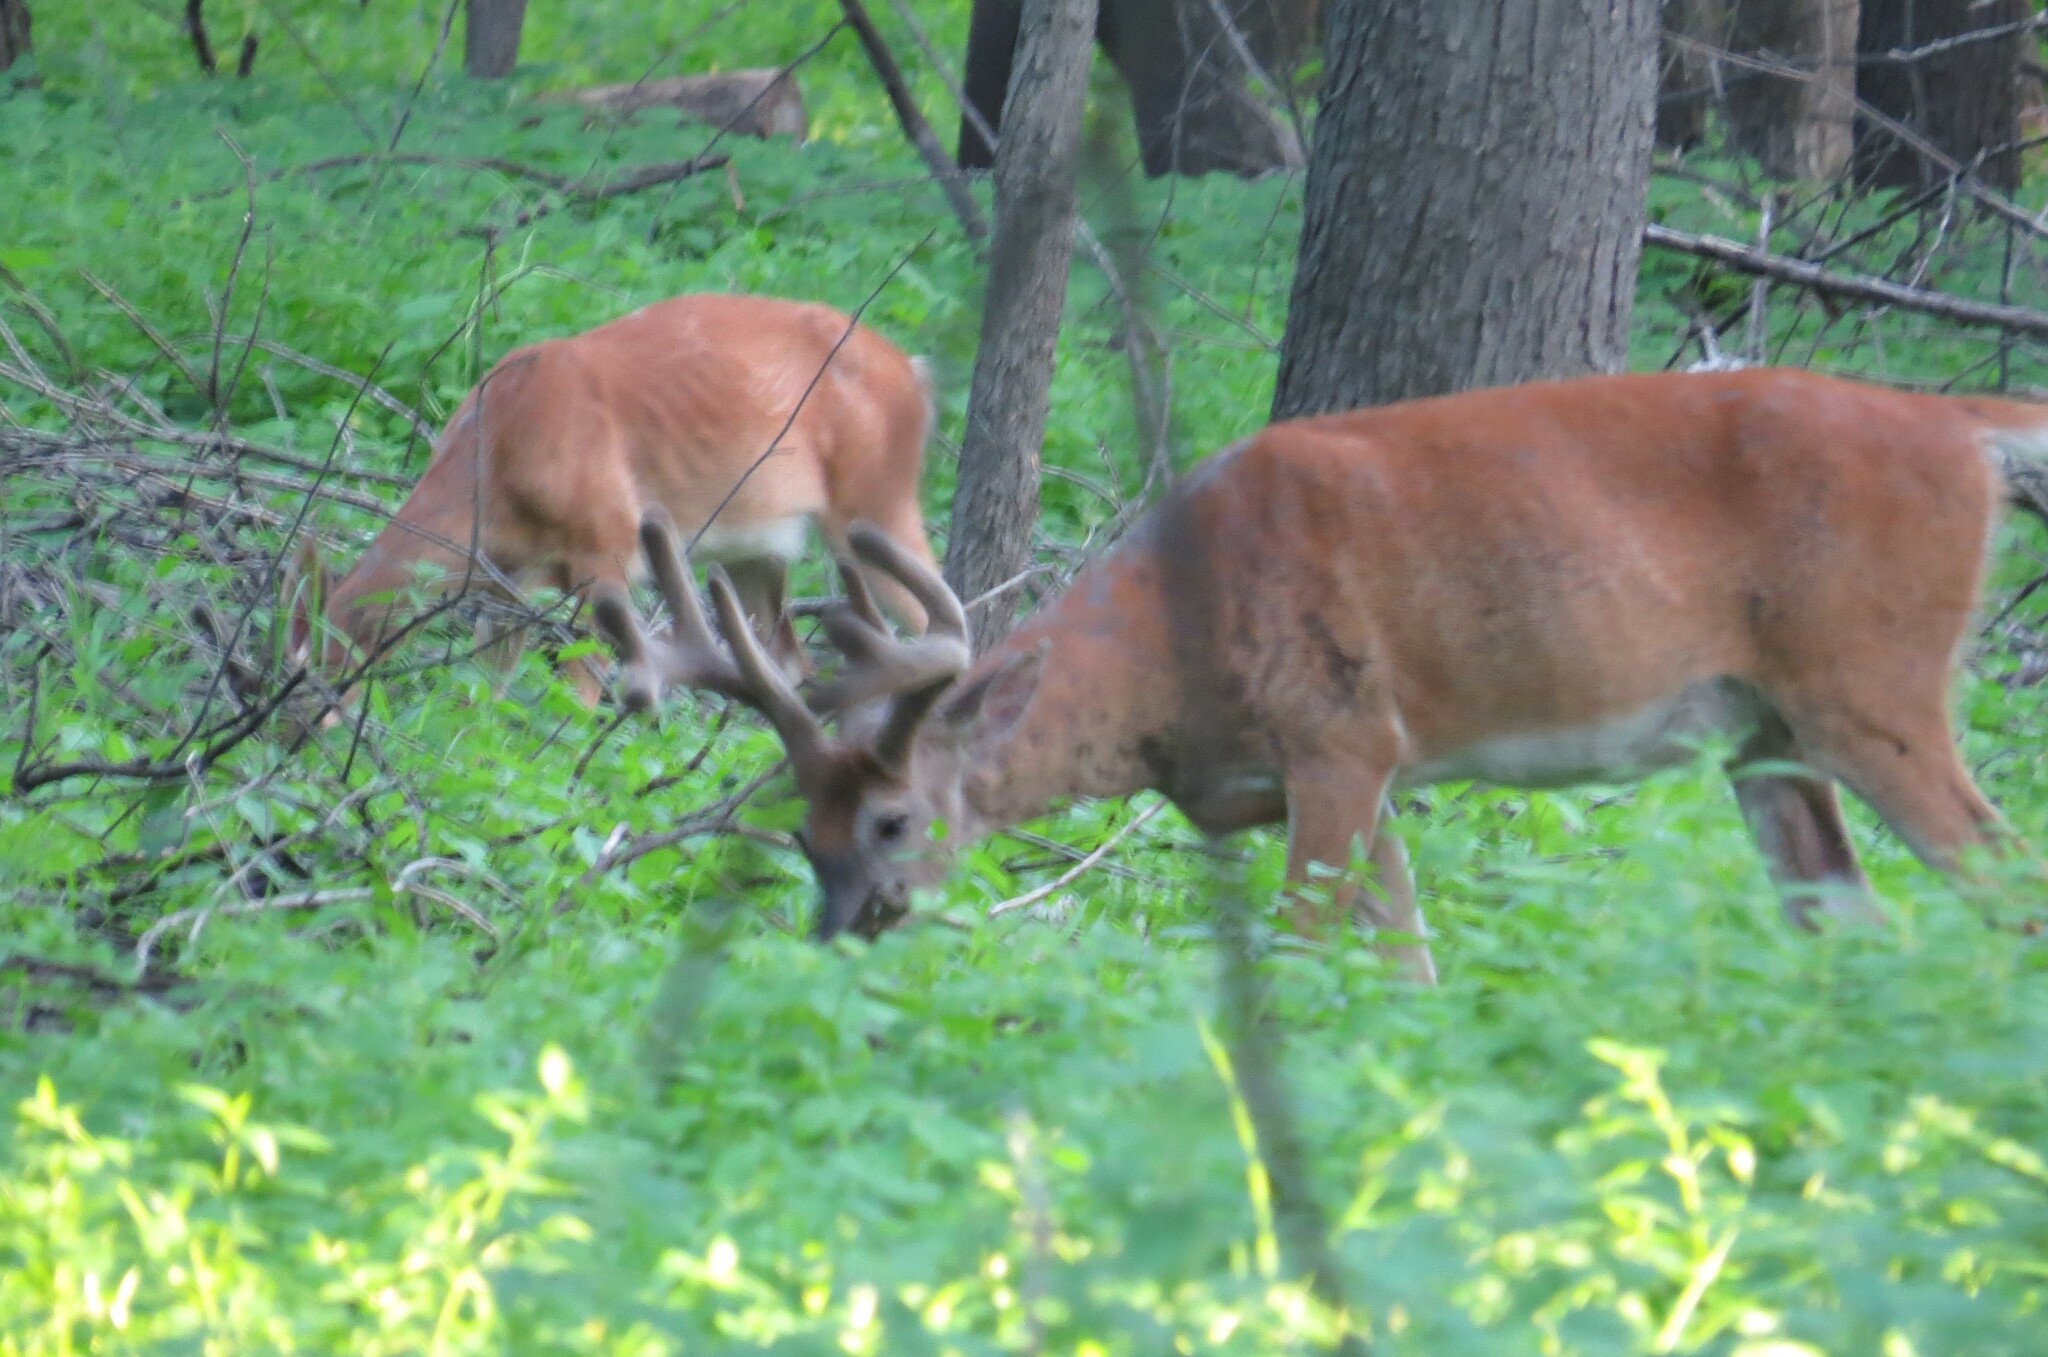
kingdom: Animalia
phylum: Chordata
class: Mammalia
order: Artiodactyla
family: Cervidae
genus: Odocoileus
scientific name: Odocoileus virginianus
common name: White-tailed deer
